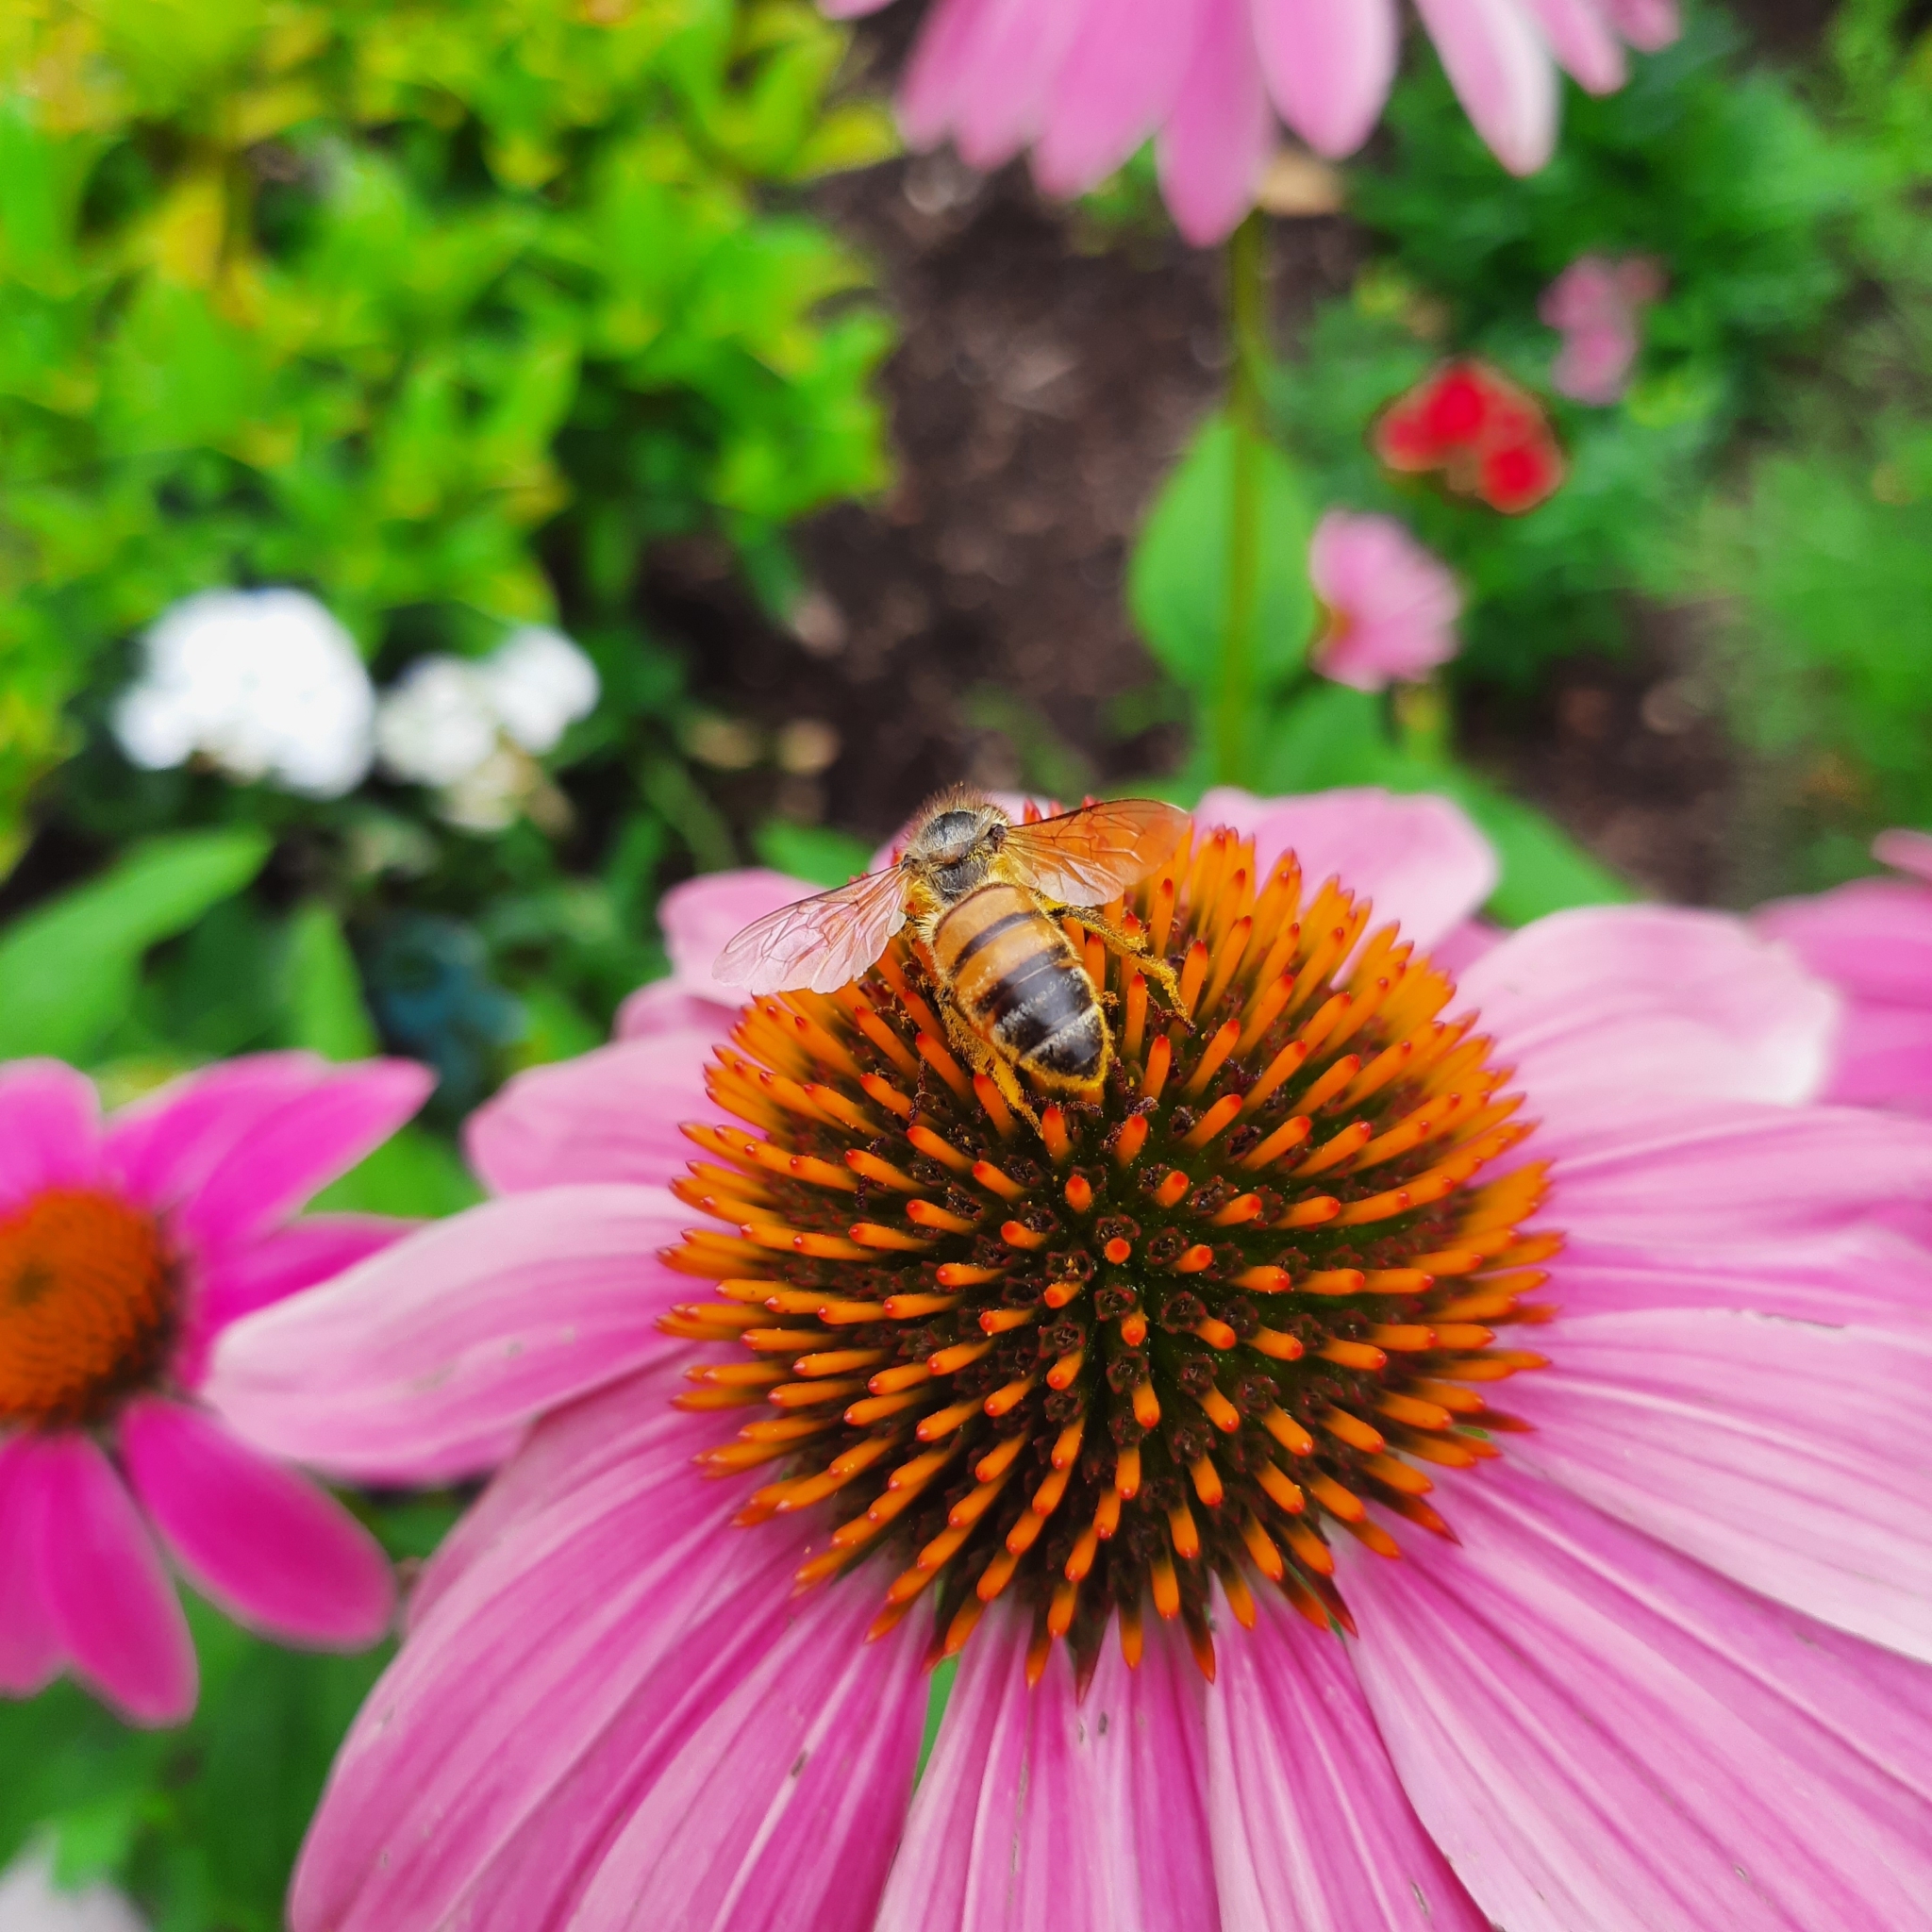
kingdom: Animalia
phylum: Arthropoda
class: Insecta
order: Hymenoptera
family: Apidae
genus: Apis
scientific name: Apis mellifera
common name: Honey bee
